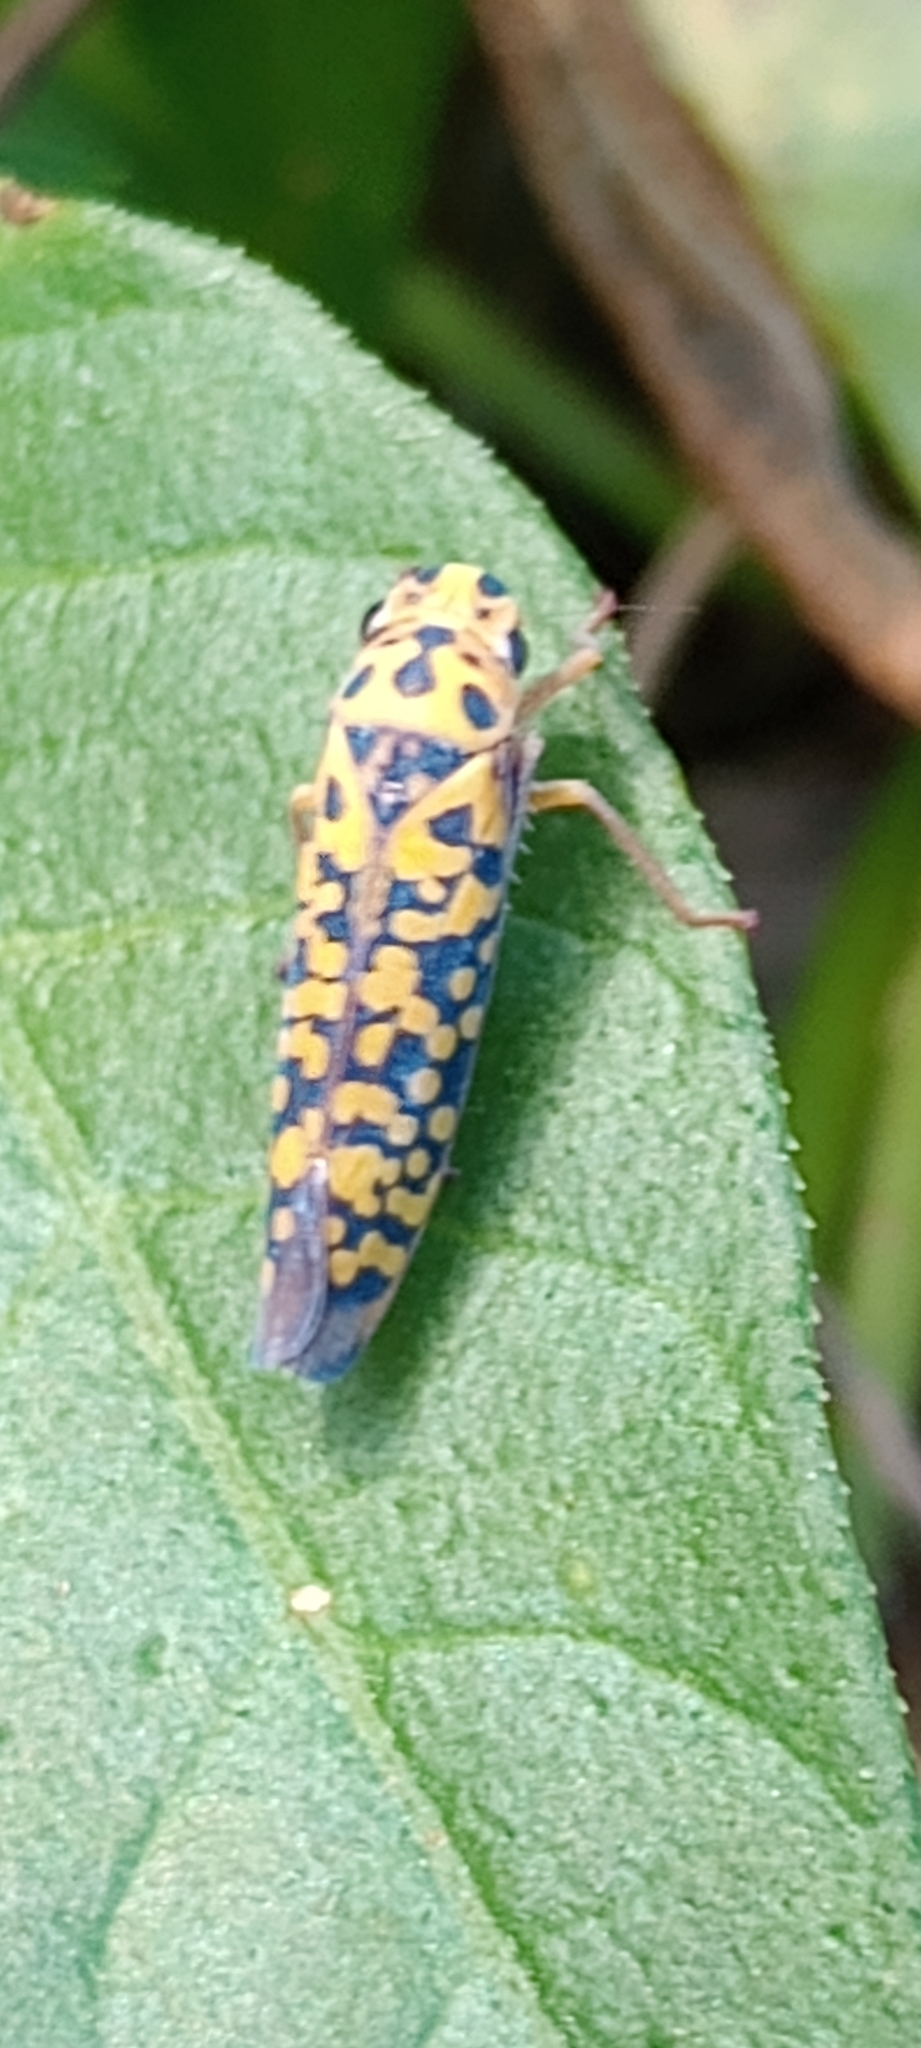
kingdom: Animalia
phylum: Arthropoda
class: Insecta
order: Hemiptera
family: Cicadellidae
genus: Pawiloma
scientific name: Pawiloma victima
